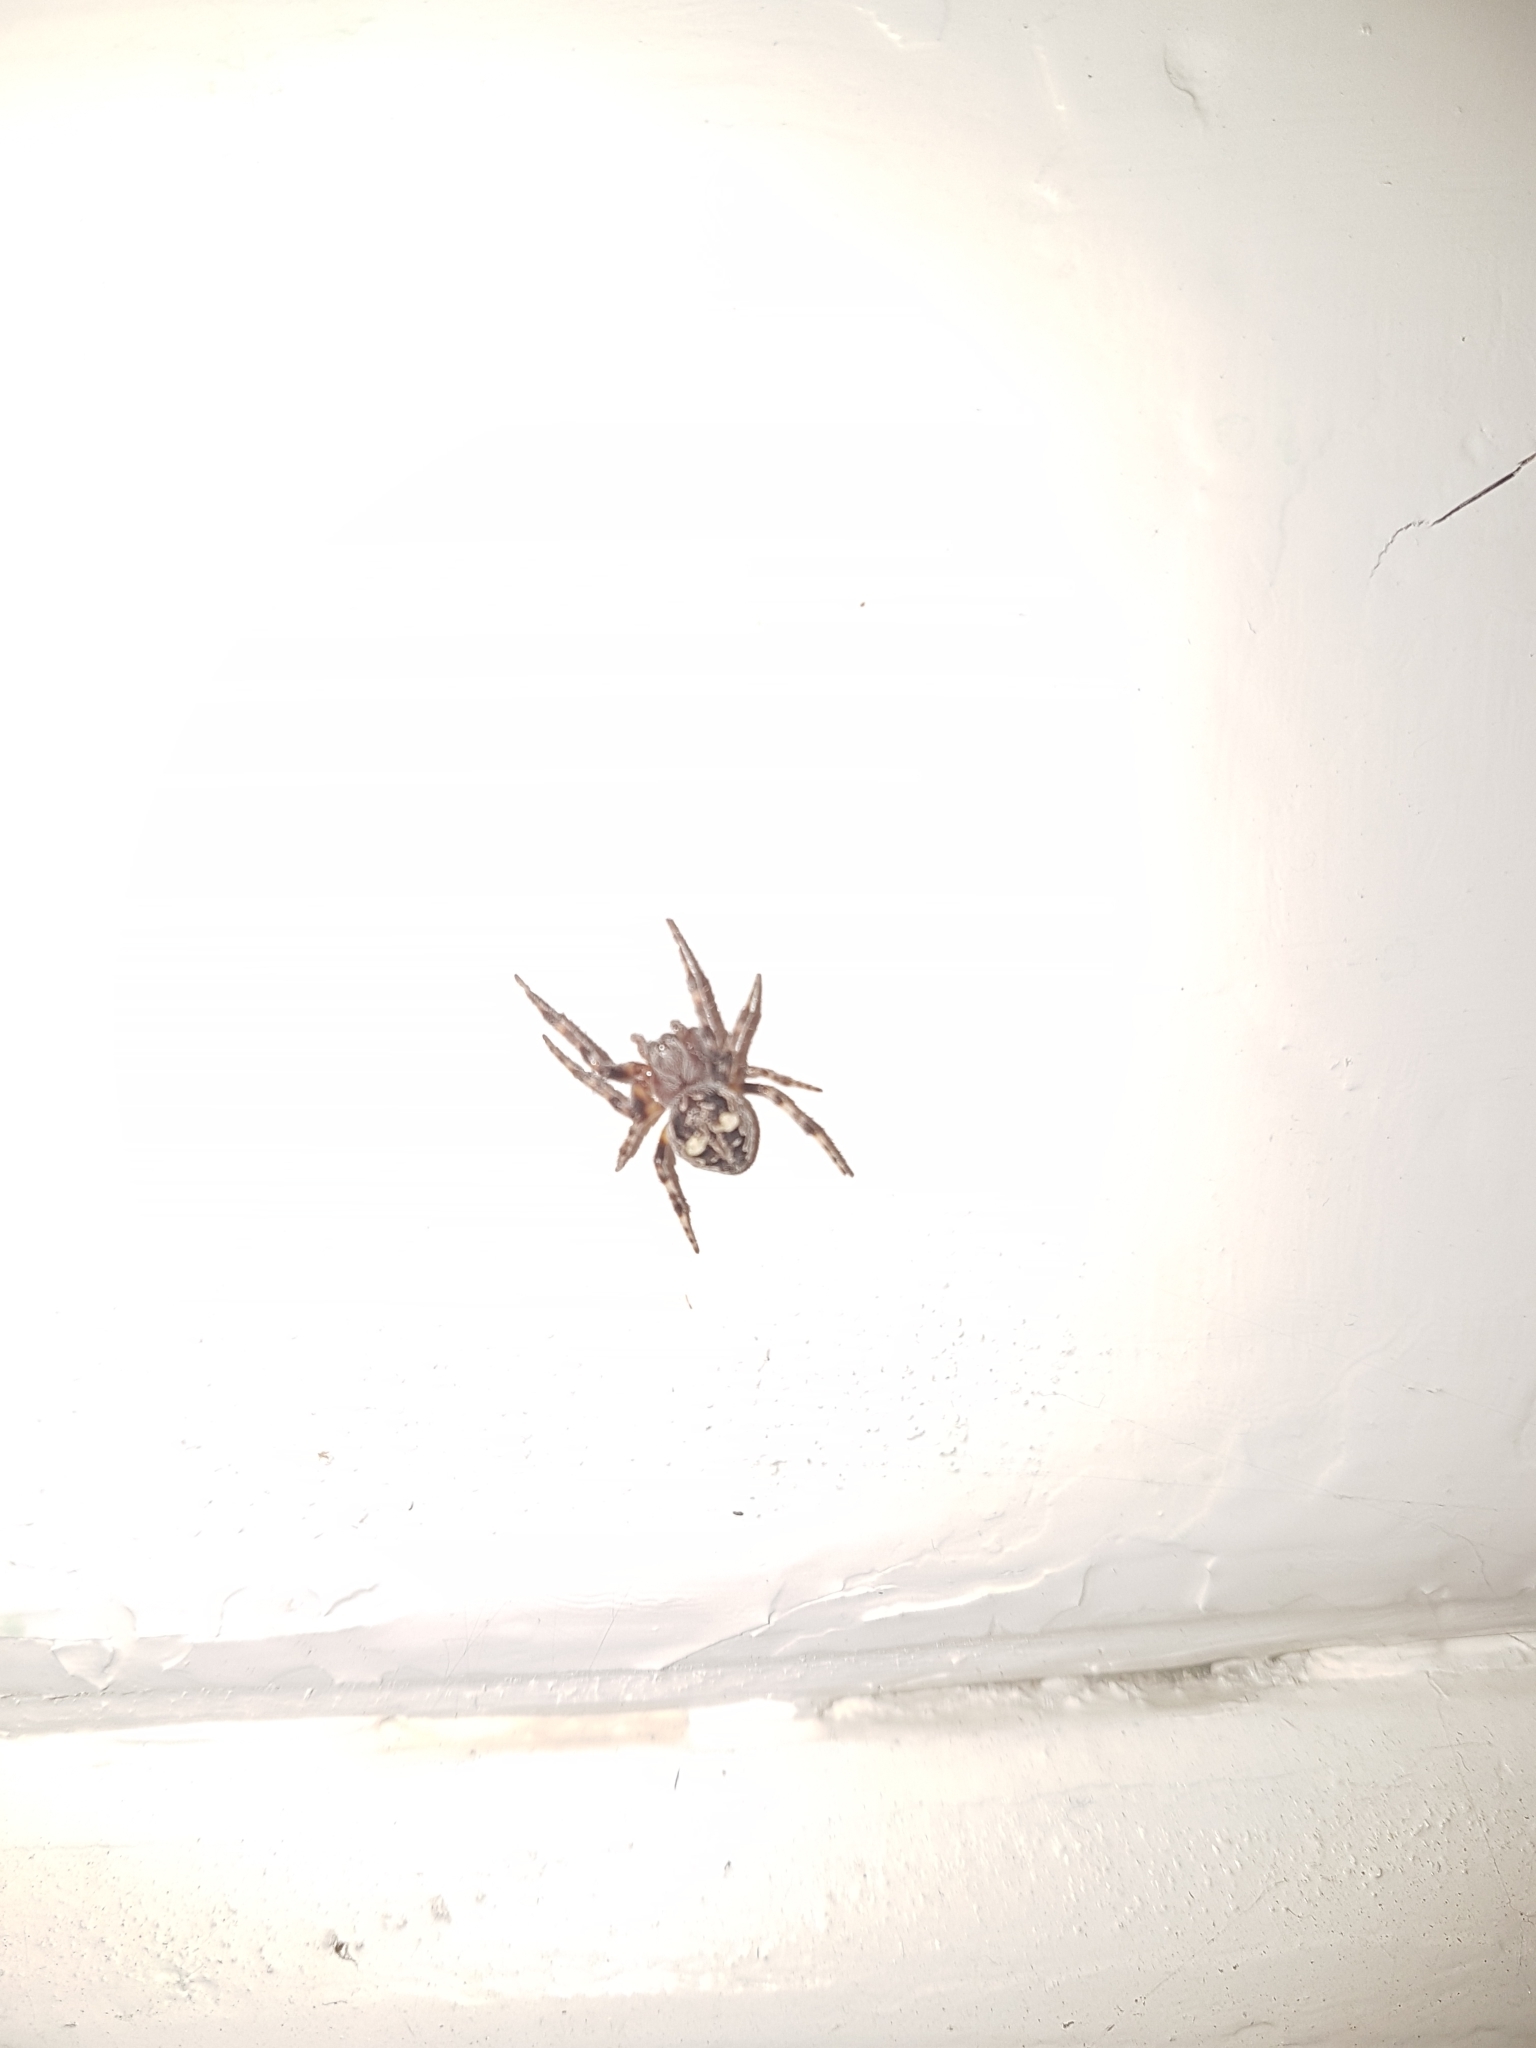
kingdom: Animalia
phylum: Arthropoda
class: Arachnida
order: Araneae
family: Araneidae
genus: Larinioides
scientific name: Larinioides patagiatus
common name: Ornamental orbweaver
